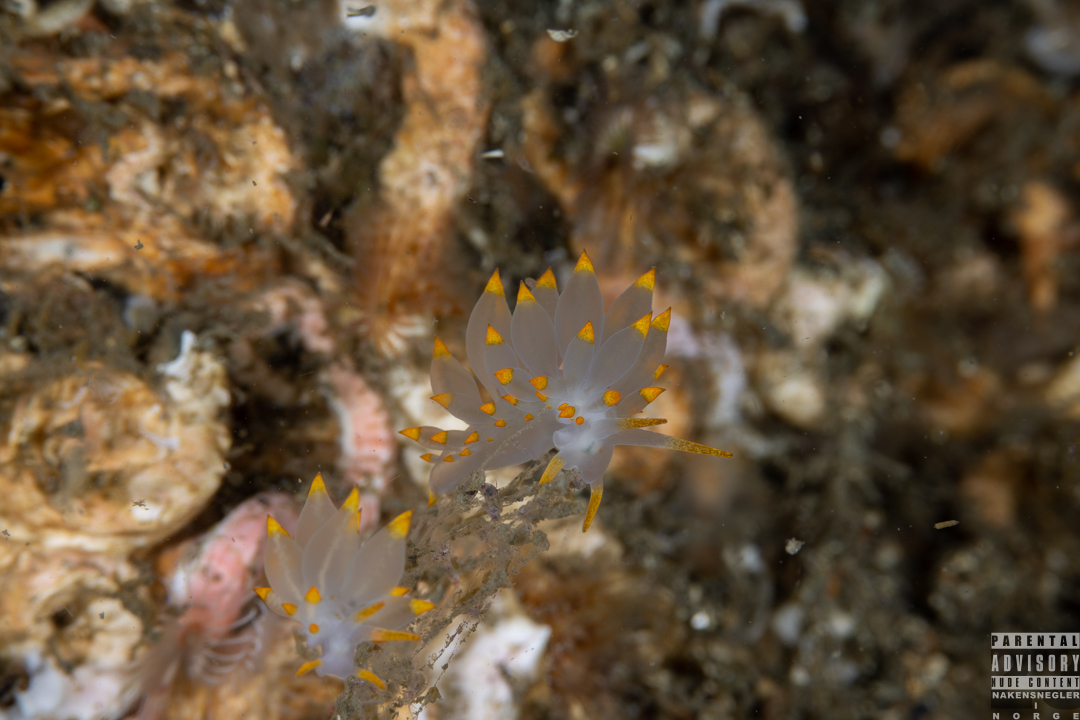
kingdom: Animalia
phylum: Mollusca
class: Gastropoda
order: Nudibranchia
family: Eubranchidae
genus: Amphorina
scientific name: Amphorina farrani
